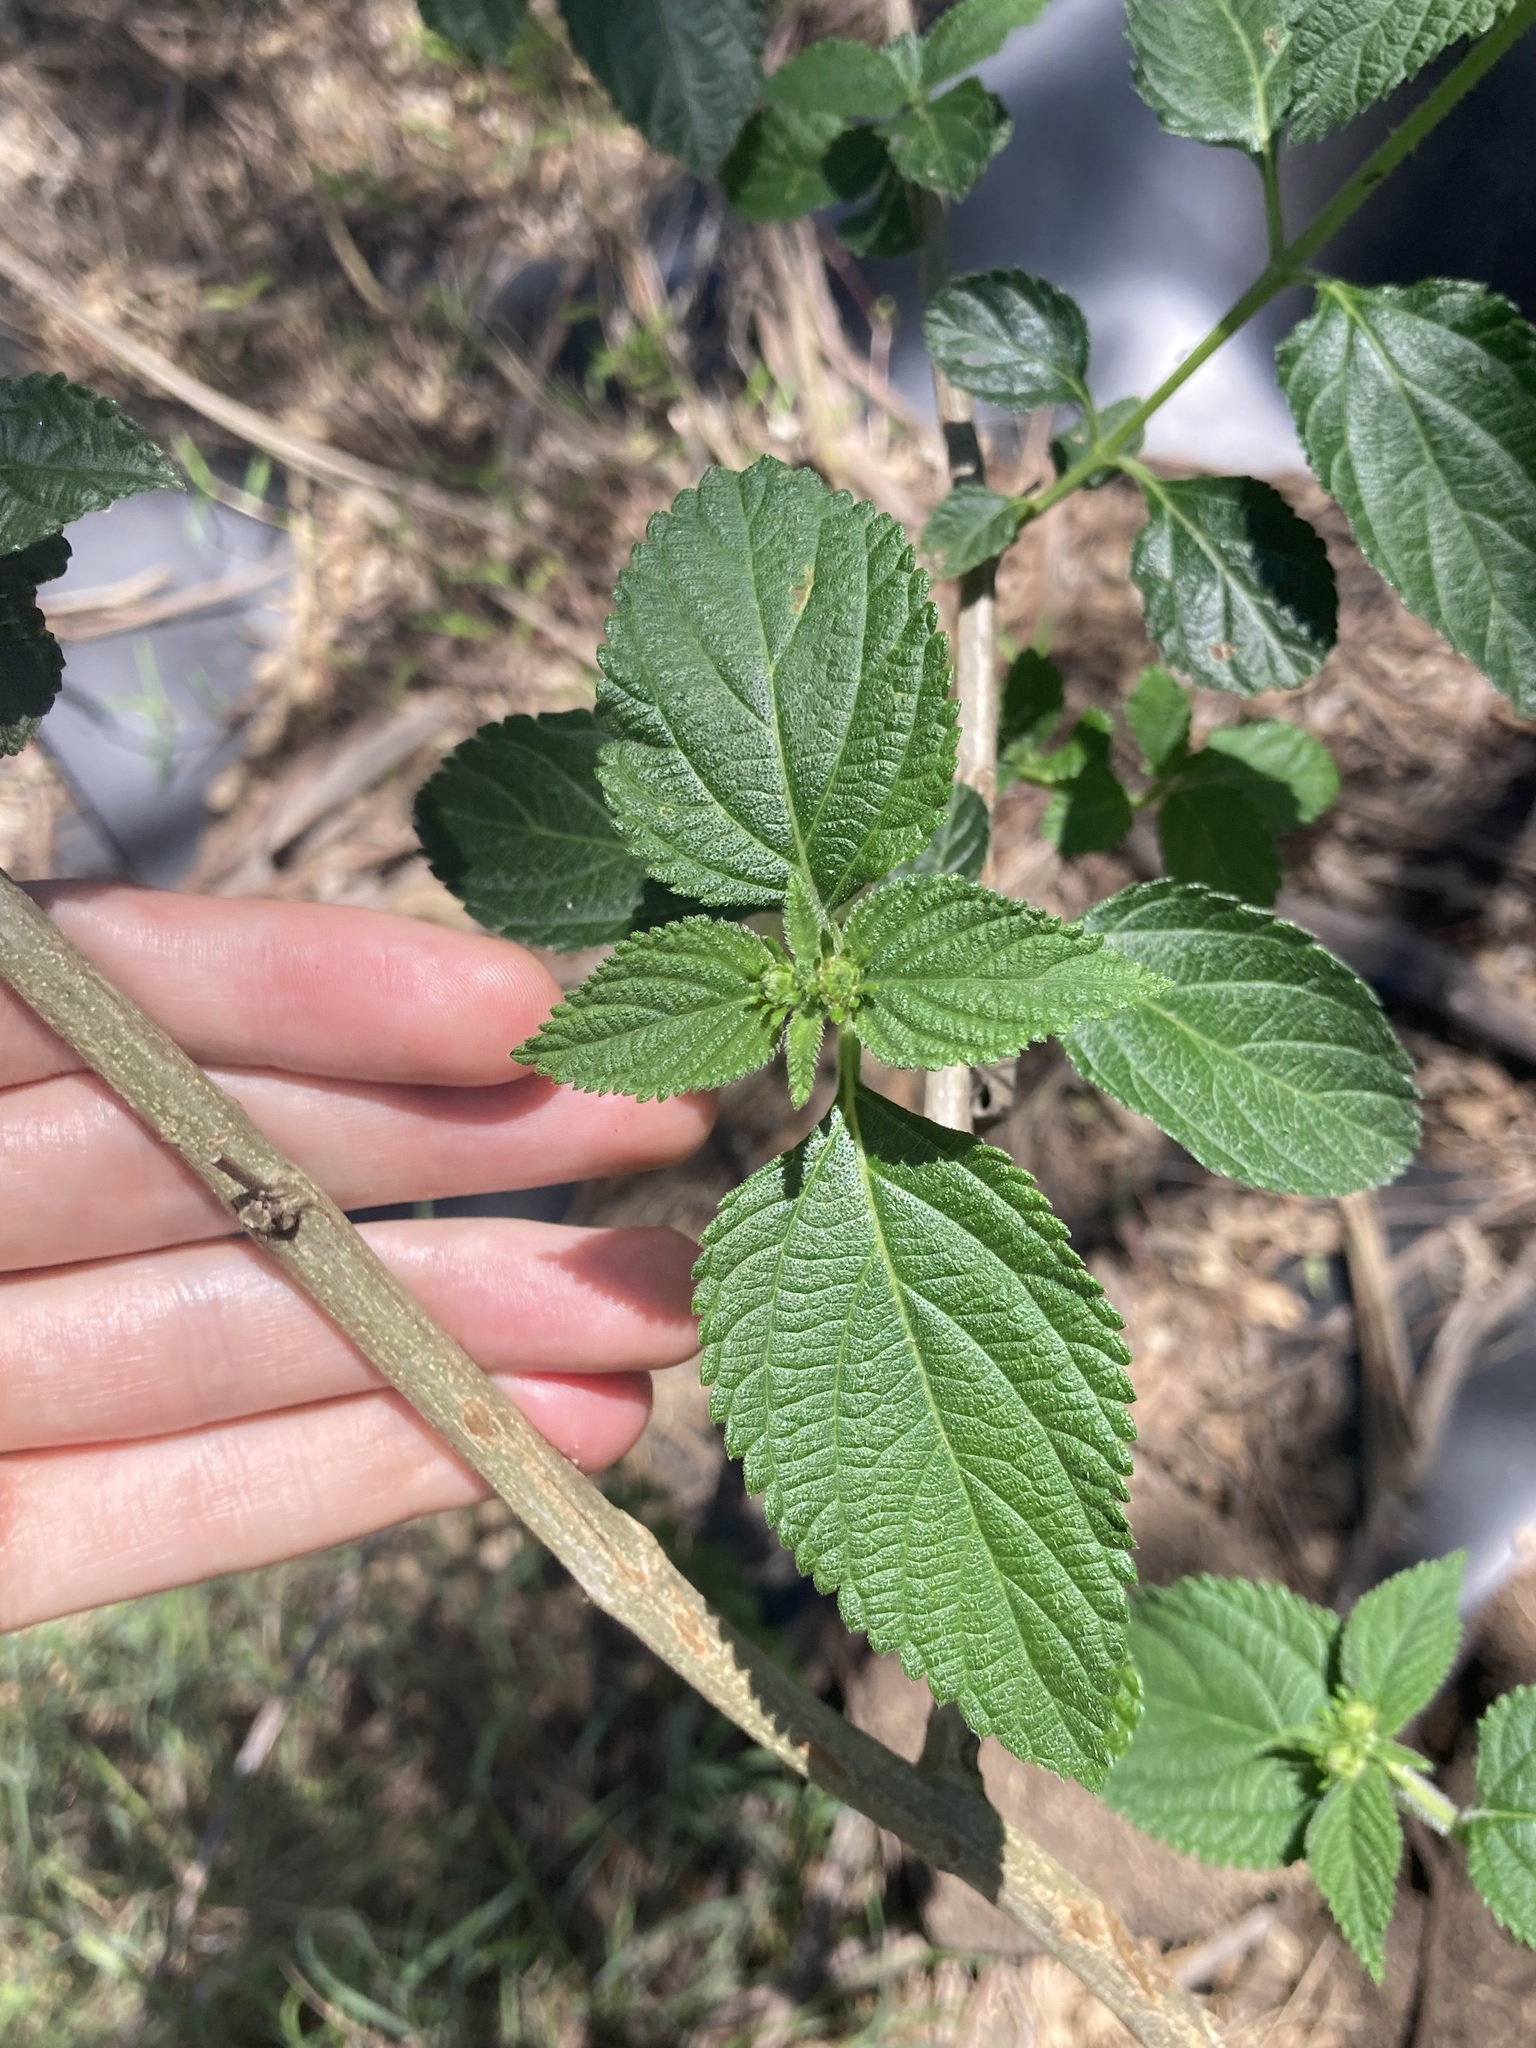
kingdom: Plantae
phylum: Tracheophyta
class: Magnoliopsida
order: Lamiales
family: Verbenaceae
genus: Lantana
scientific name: Lantana camara
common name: Lantana
